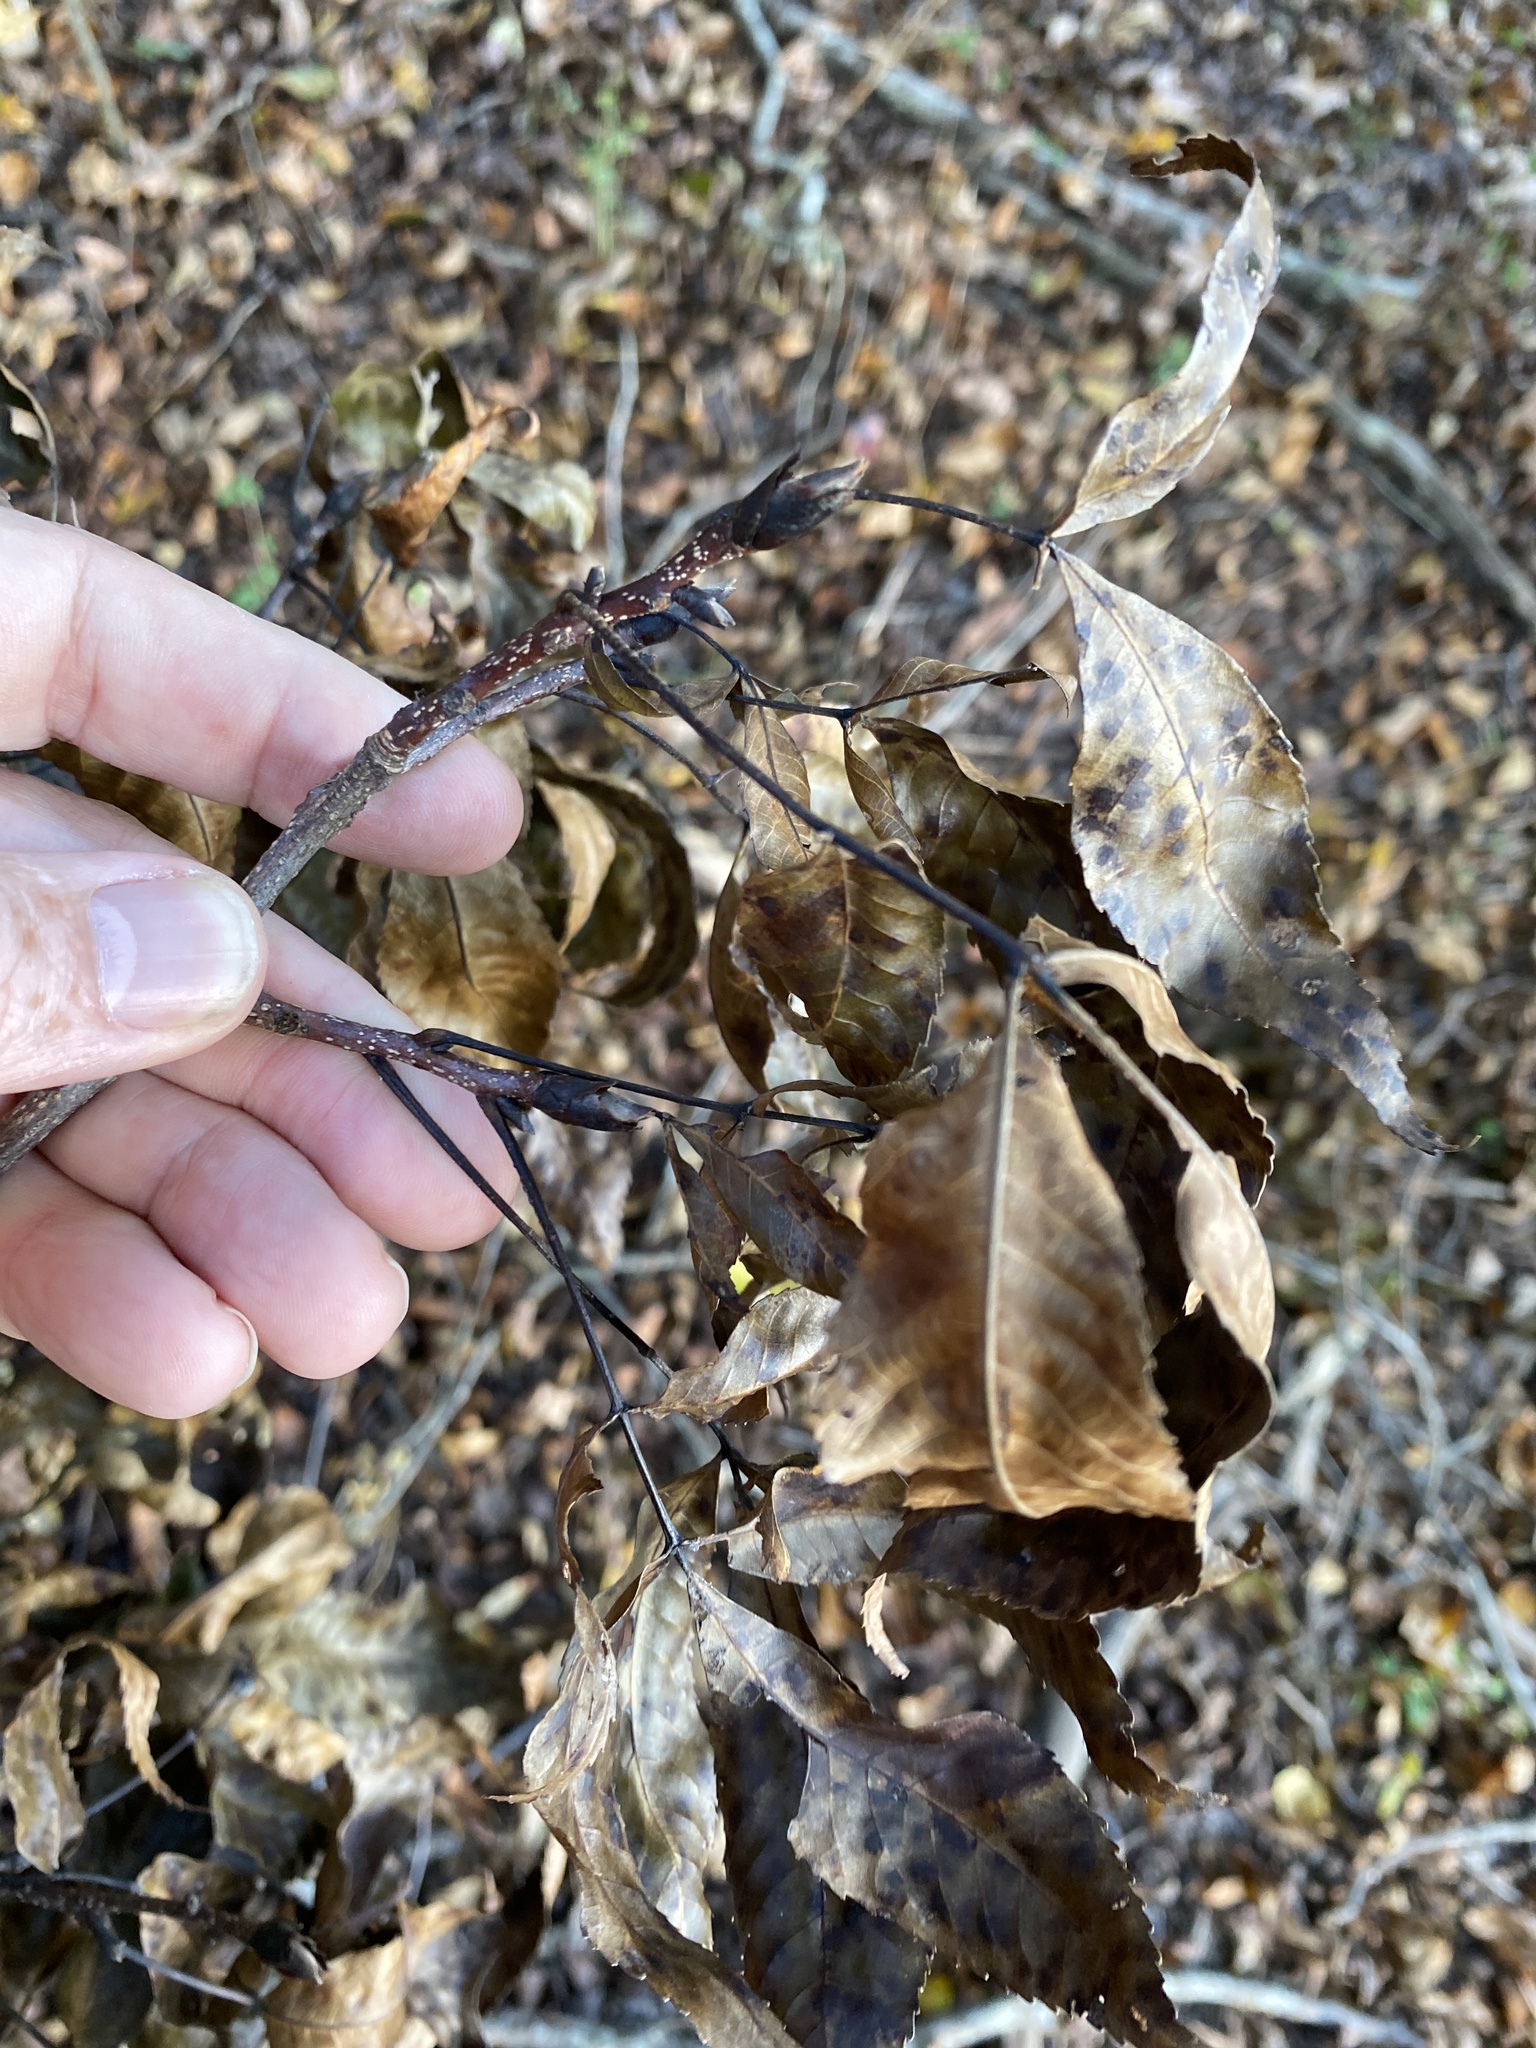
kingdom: Plantae
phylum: Tracheophyta
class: Magnoliopsida
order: Fagales
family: Juglandaceae
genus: Carya
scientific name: Carya carolinae-septentrionalis
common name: Carolina hickory
